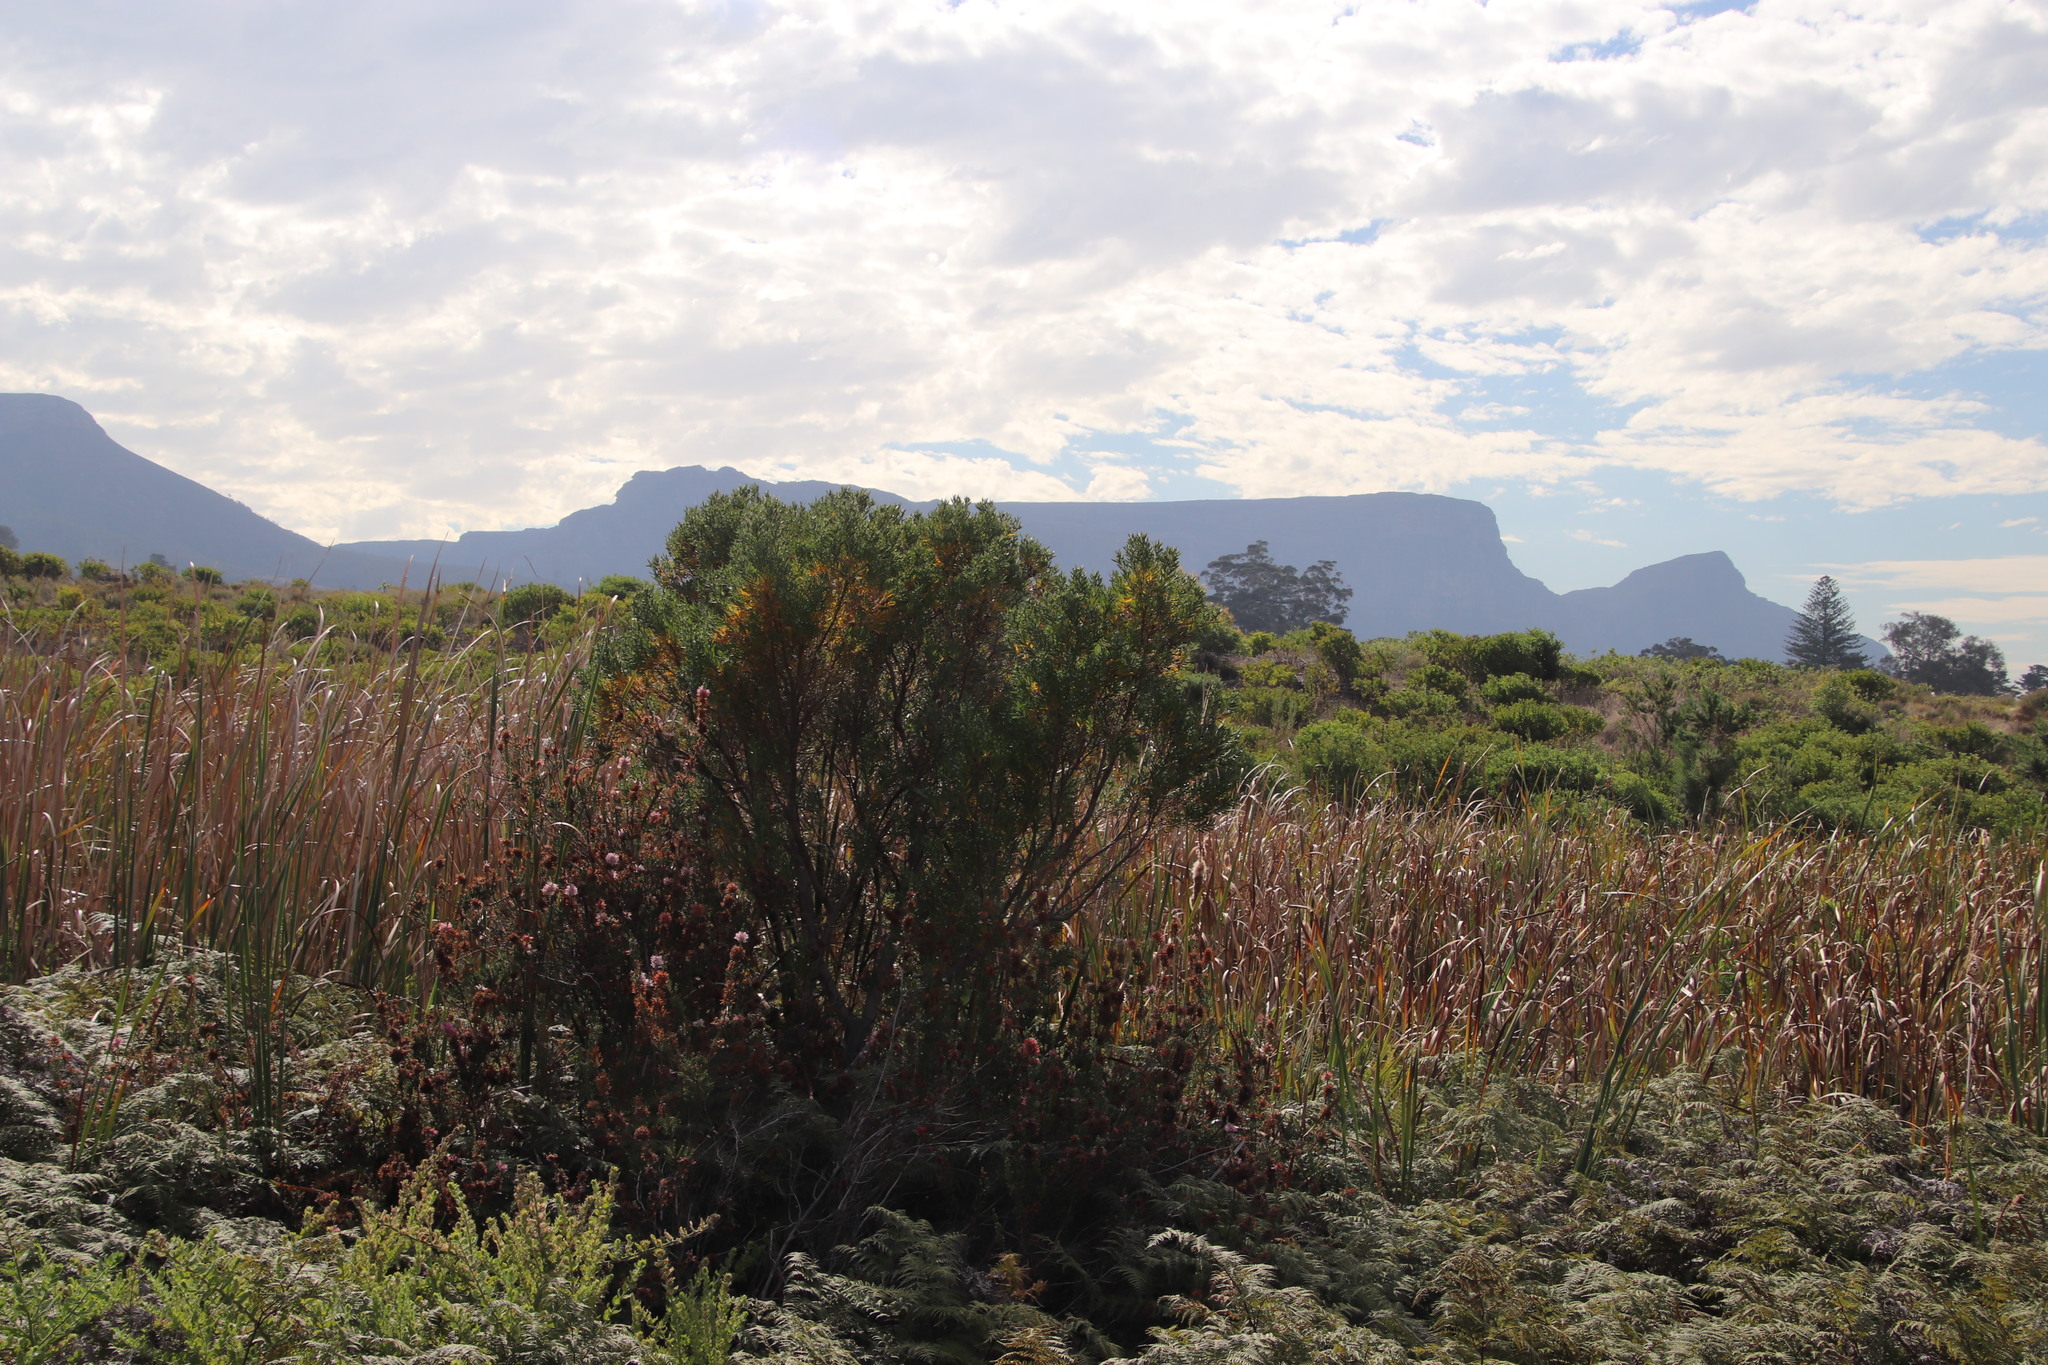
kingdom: Plantae
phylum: Tracheophyta
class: Magnoliopsida
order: Proteales
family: Proteaceae
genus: Leucadendron
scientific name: Leucadendron macowanii
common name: Acacia-leaf conebush
